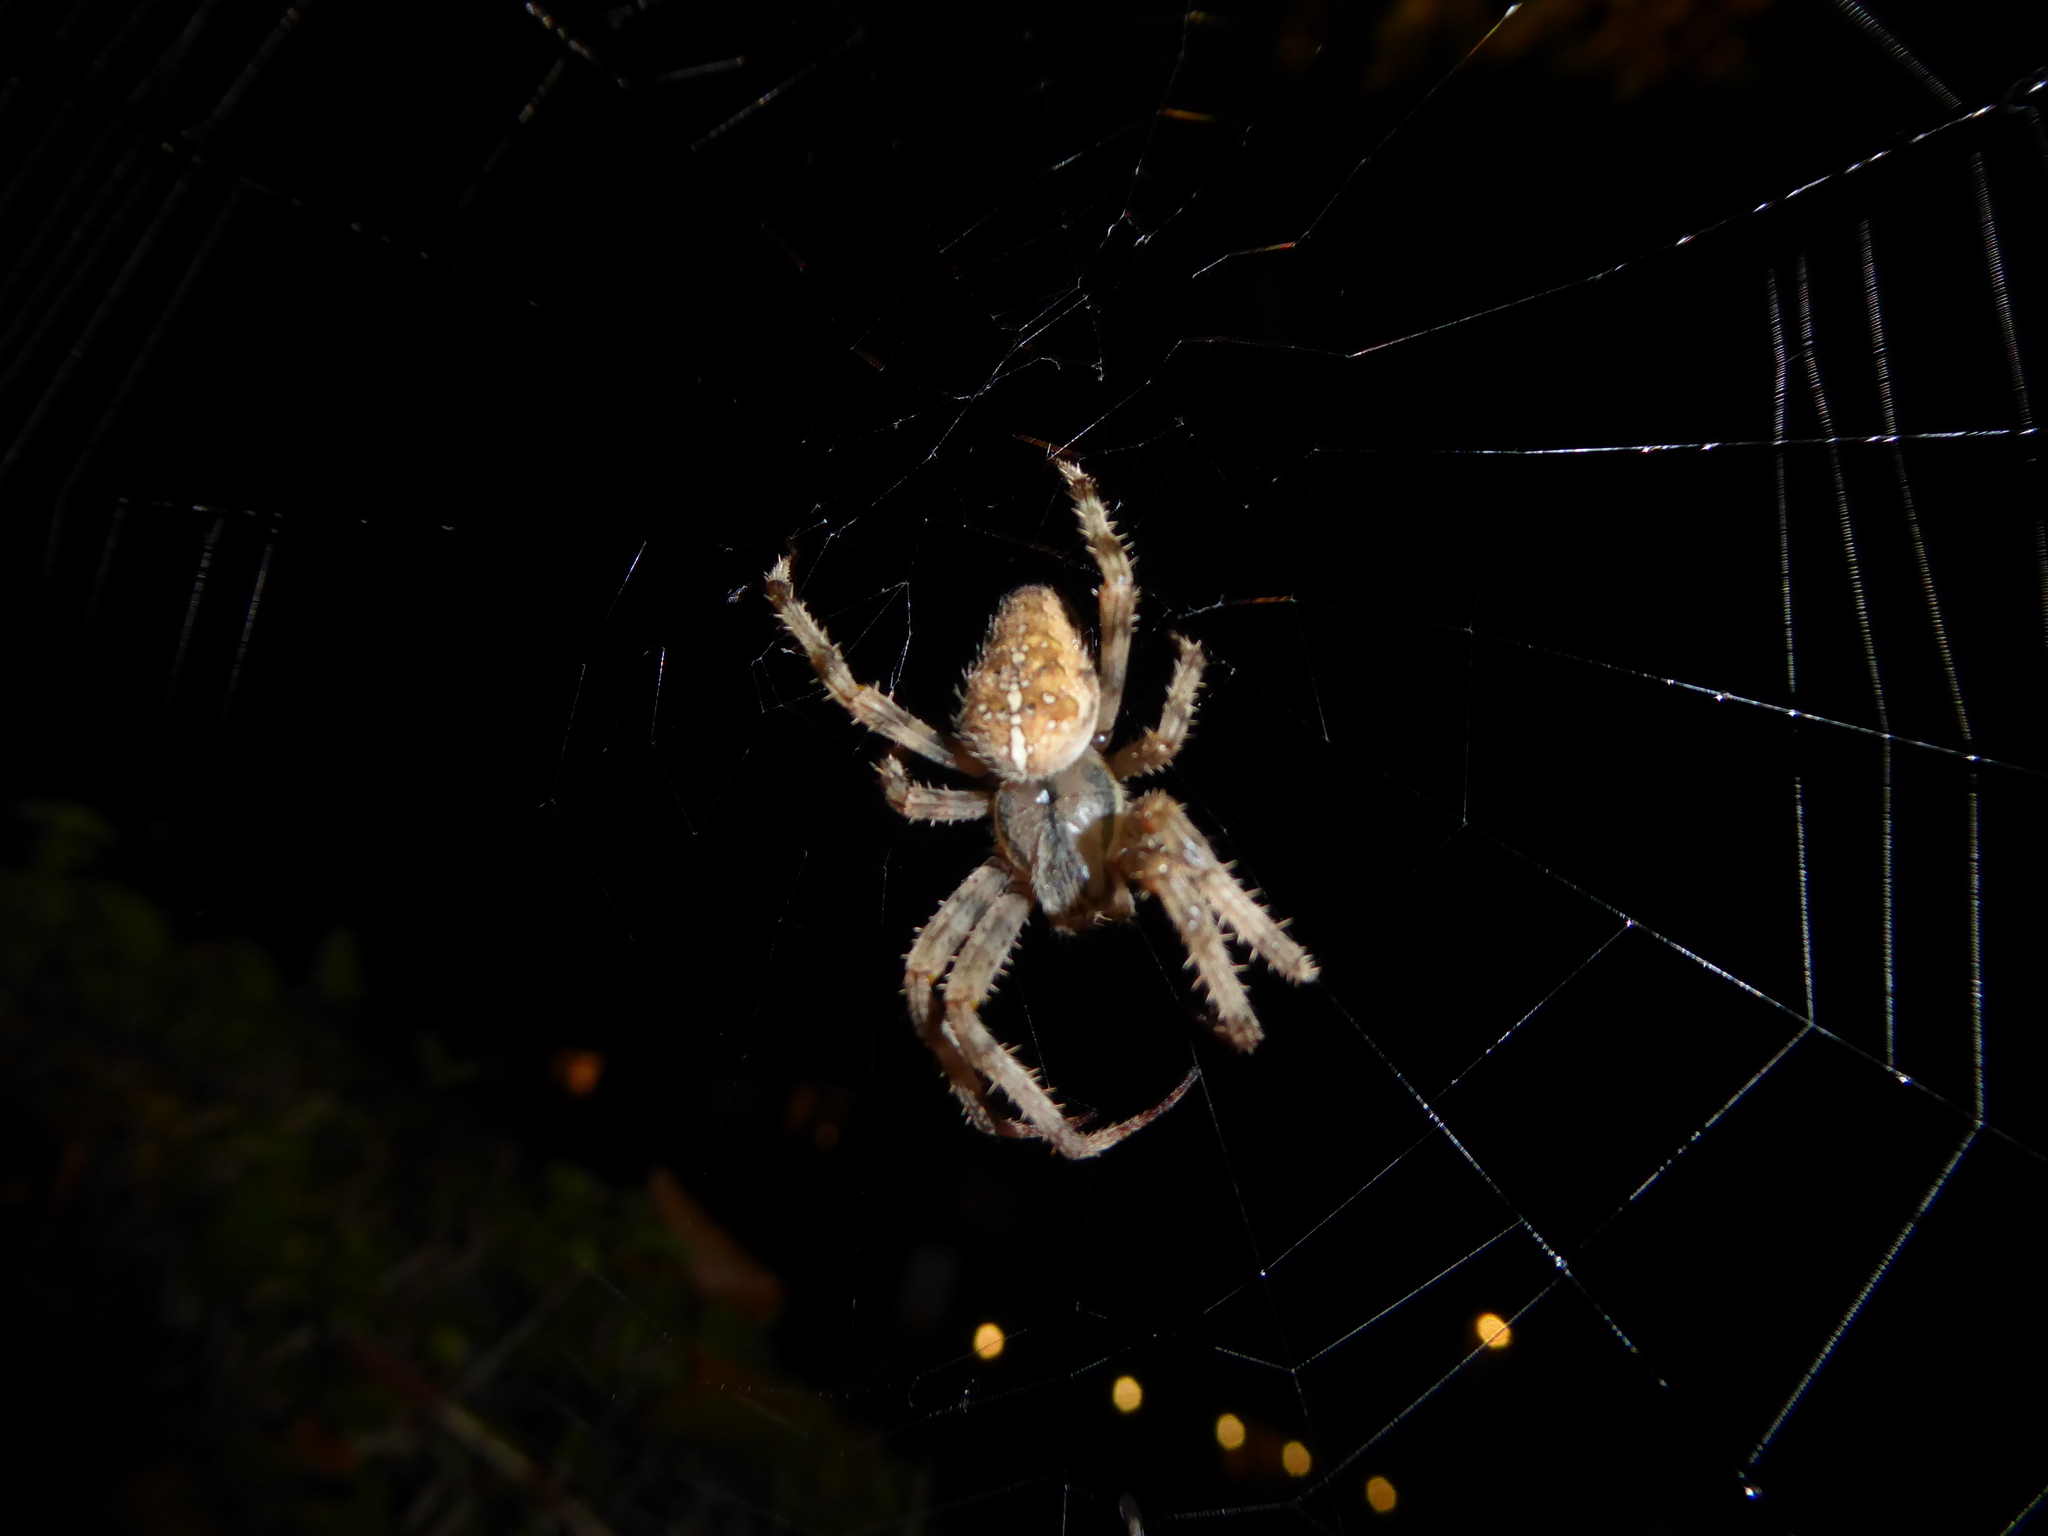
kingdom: Animalia
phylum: Arthropoda
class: Arachnida
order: Araneae
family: Araneidae
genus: Araneus
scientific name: Araneus diadematus
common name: Cross orbweaver
